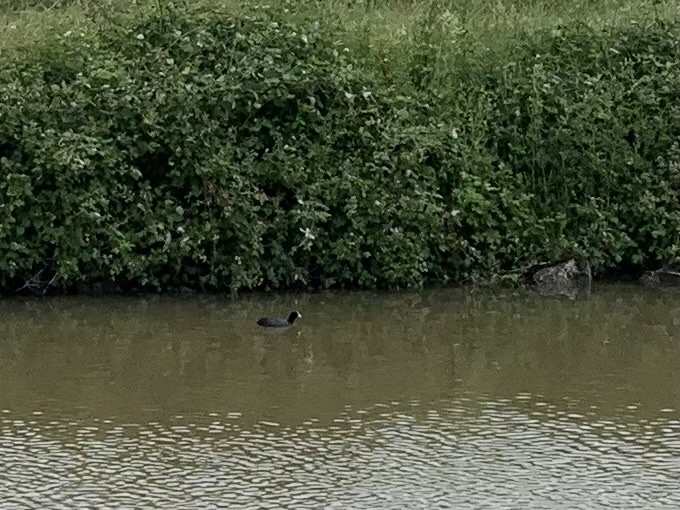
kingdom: Animalia
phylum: Chordata
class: Aves
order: Gruiformes
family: Rallidae
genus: Fulica
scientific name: Fulica atra
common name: Eurasian coot
